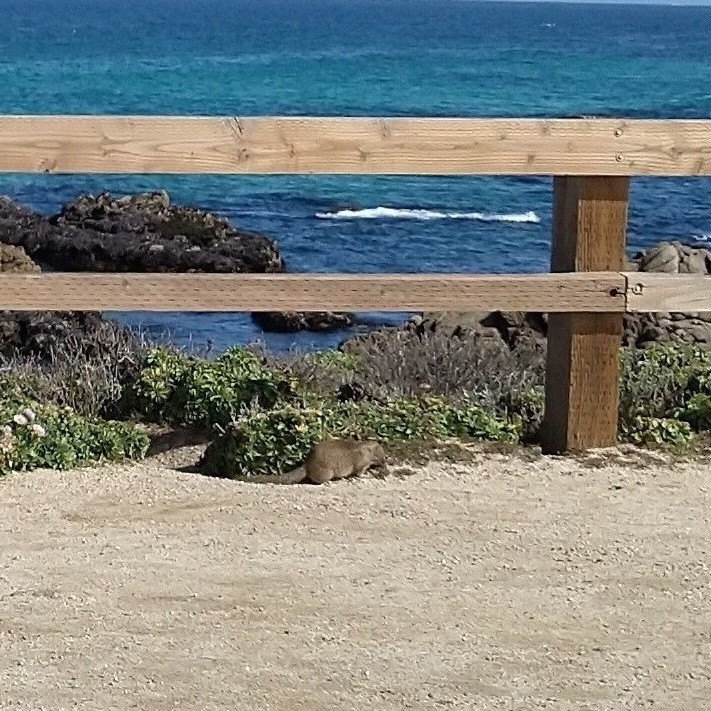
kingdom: Animalia
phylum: Chordata
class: Mammalia
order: Rodentia
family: Sciuridae
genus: Otospermophilus
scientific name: Otospermophilus beecheyi
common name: California ground squirrel
